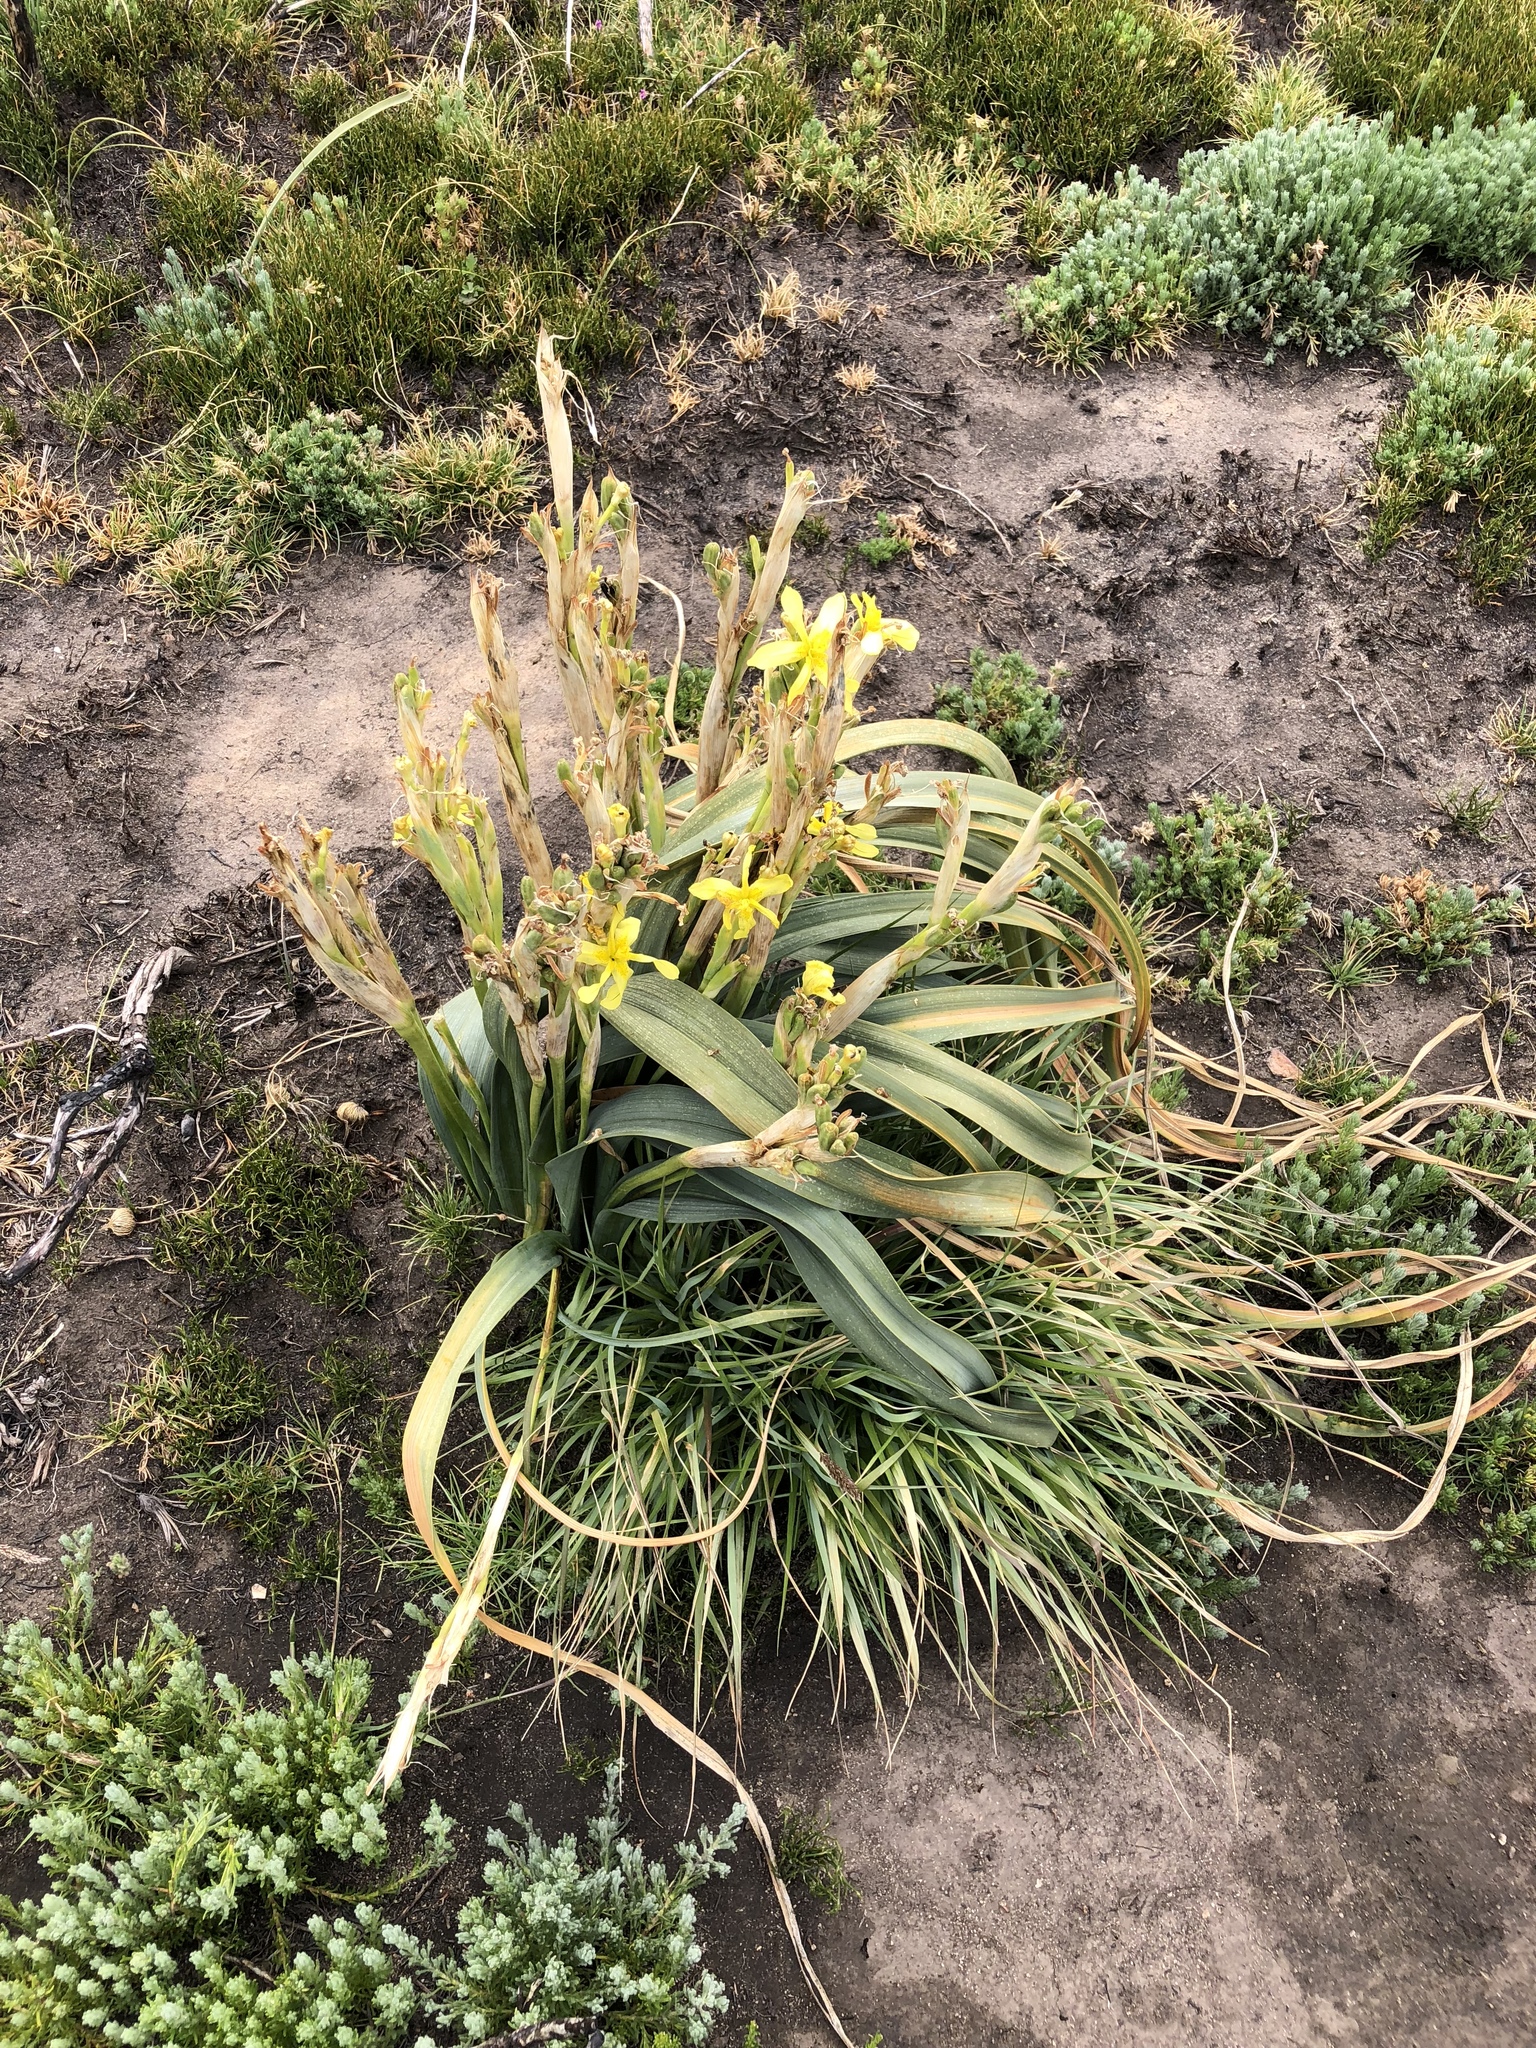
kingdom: Plantae
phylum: Tracheophyta
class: Liliopsida
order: Asparagales
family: Iridaceae
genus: Moraea
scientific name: Moraea cookii
